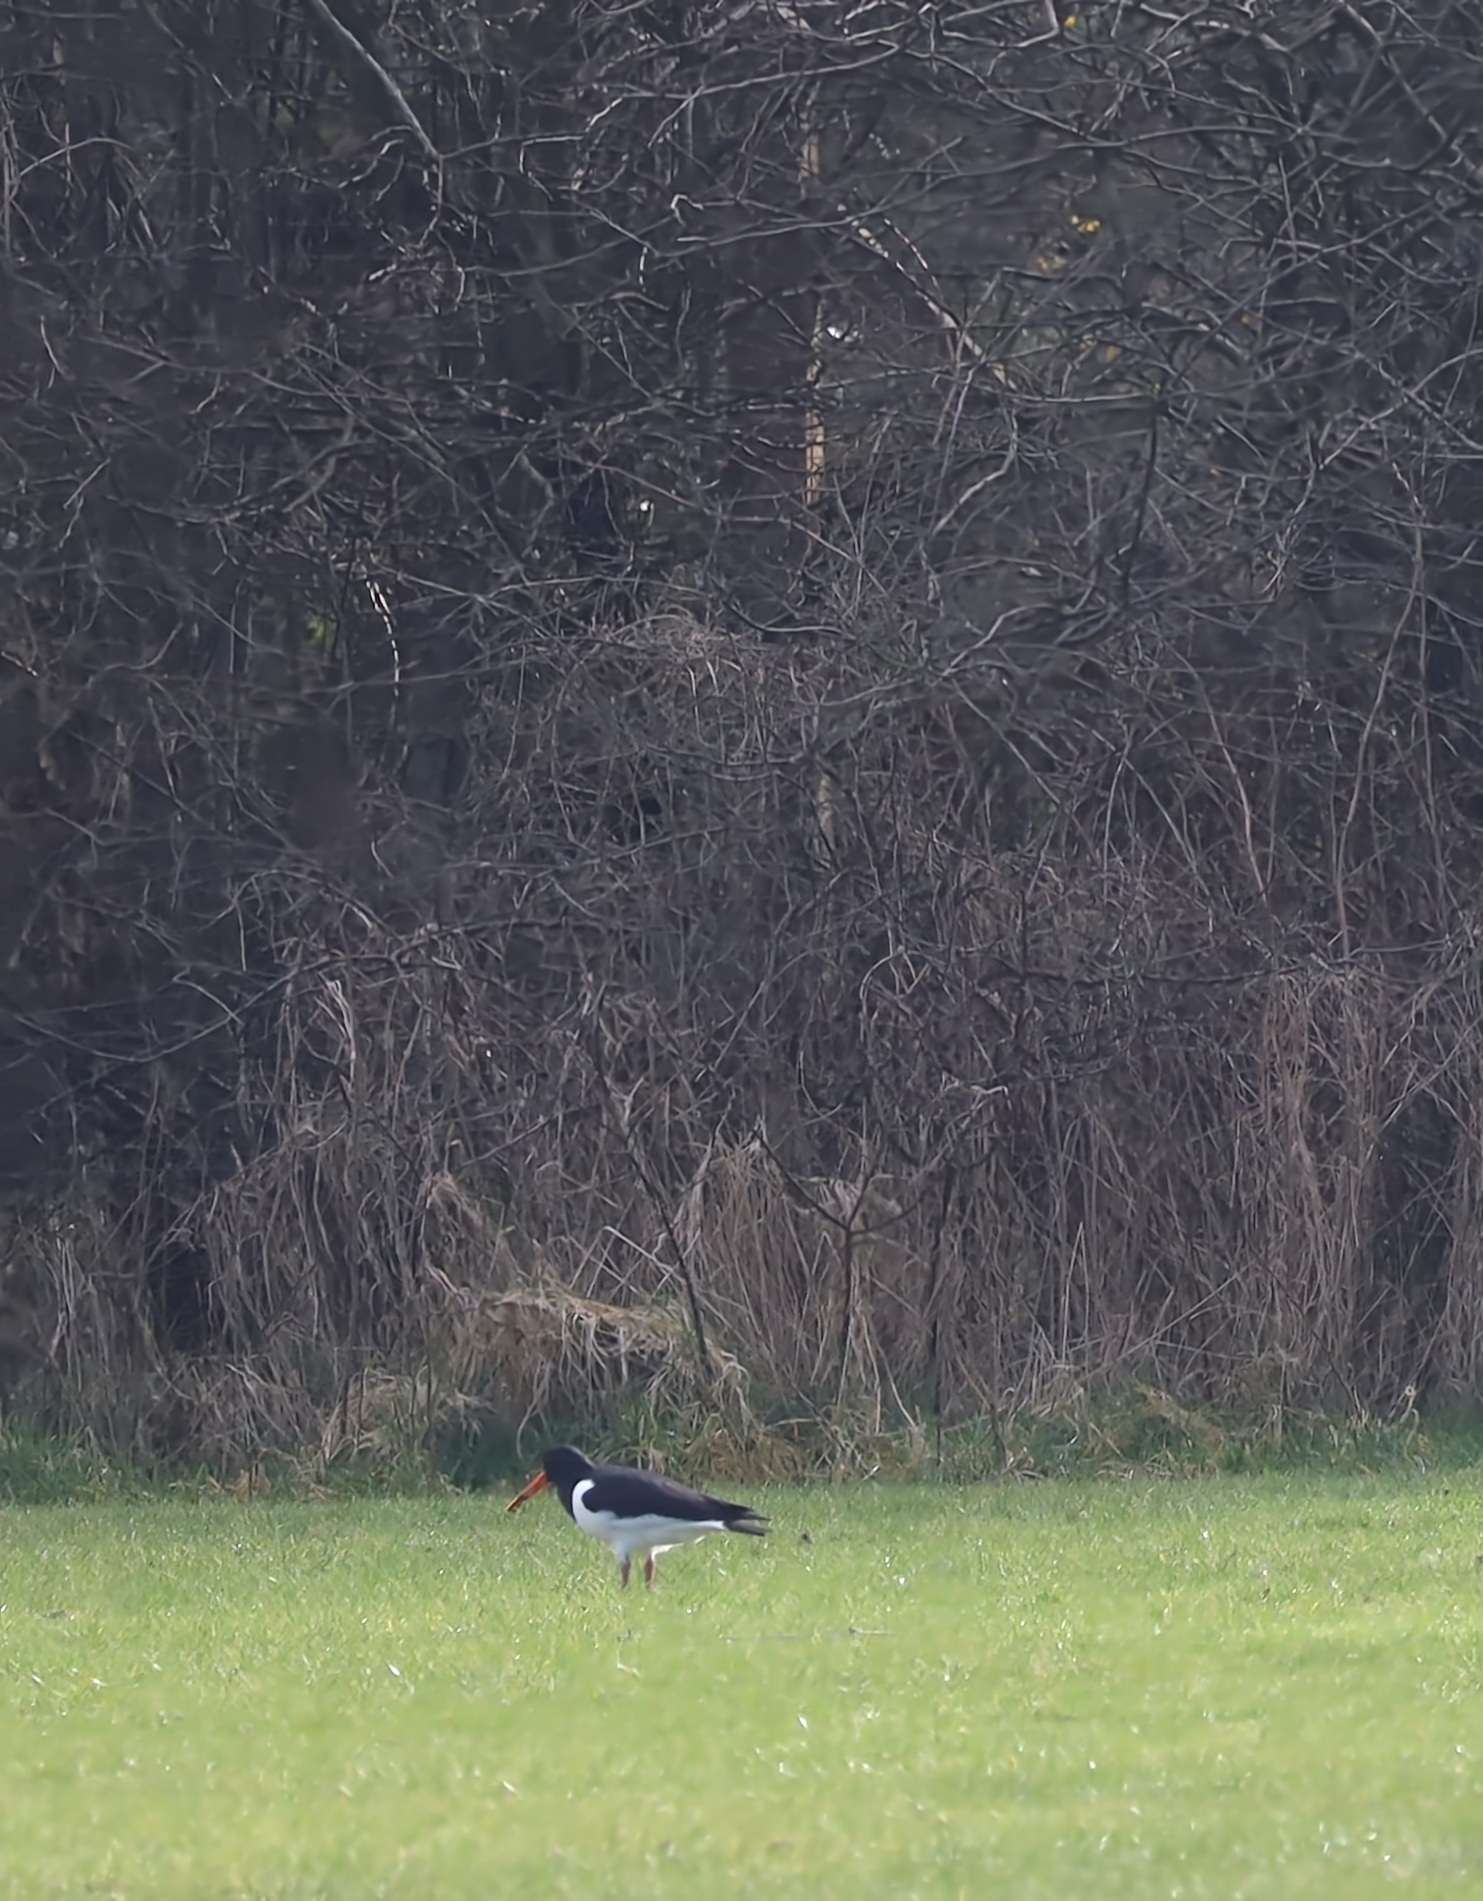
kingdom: Animalia
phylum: Chordata
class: Aves
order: Charadriiformes
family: Haematopodidae
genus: Haematopus
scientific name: Haematopus ostralegus
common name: Eurasian oystercatcher
